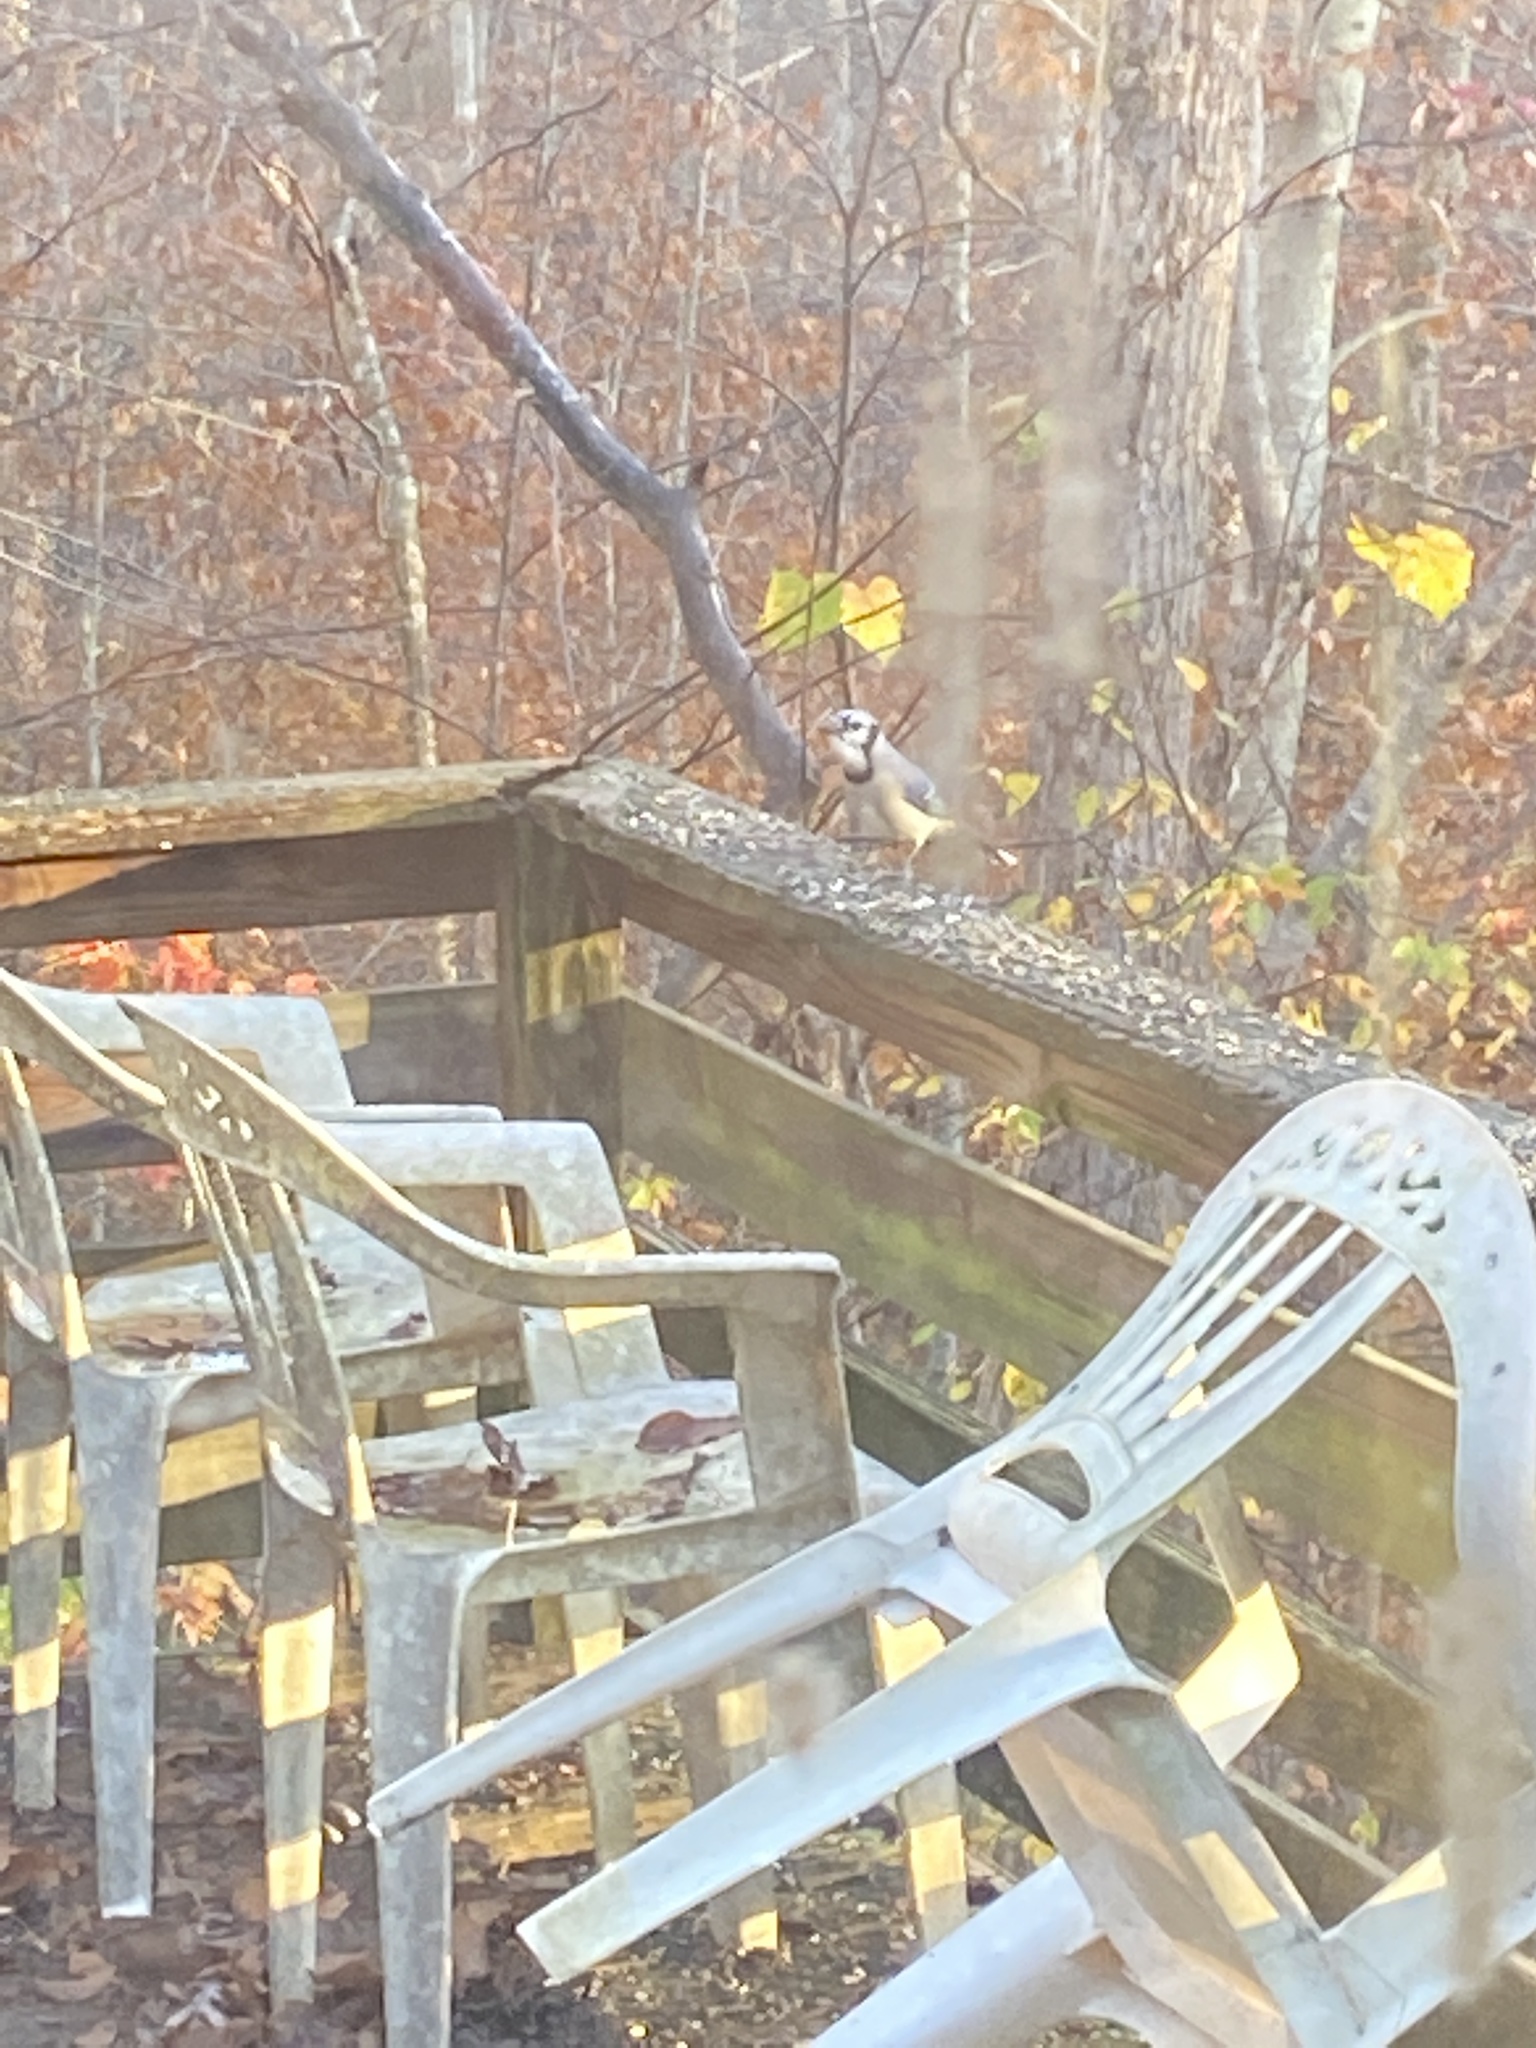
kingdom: Animalia
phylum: Chordata
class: Aves
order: Passeriformes
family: Corvidae
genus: Cyanocitta
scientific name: Cyanocitta cristata
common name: Blue jay
